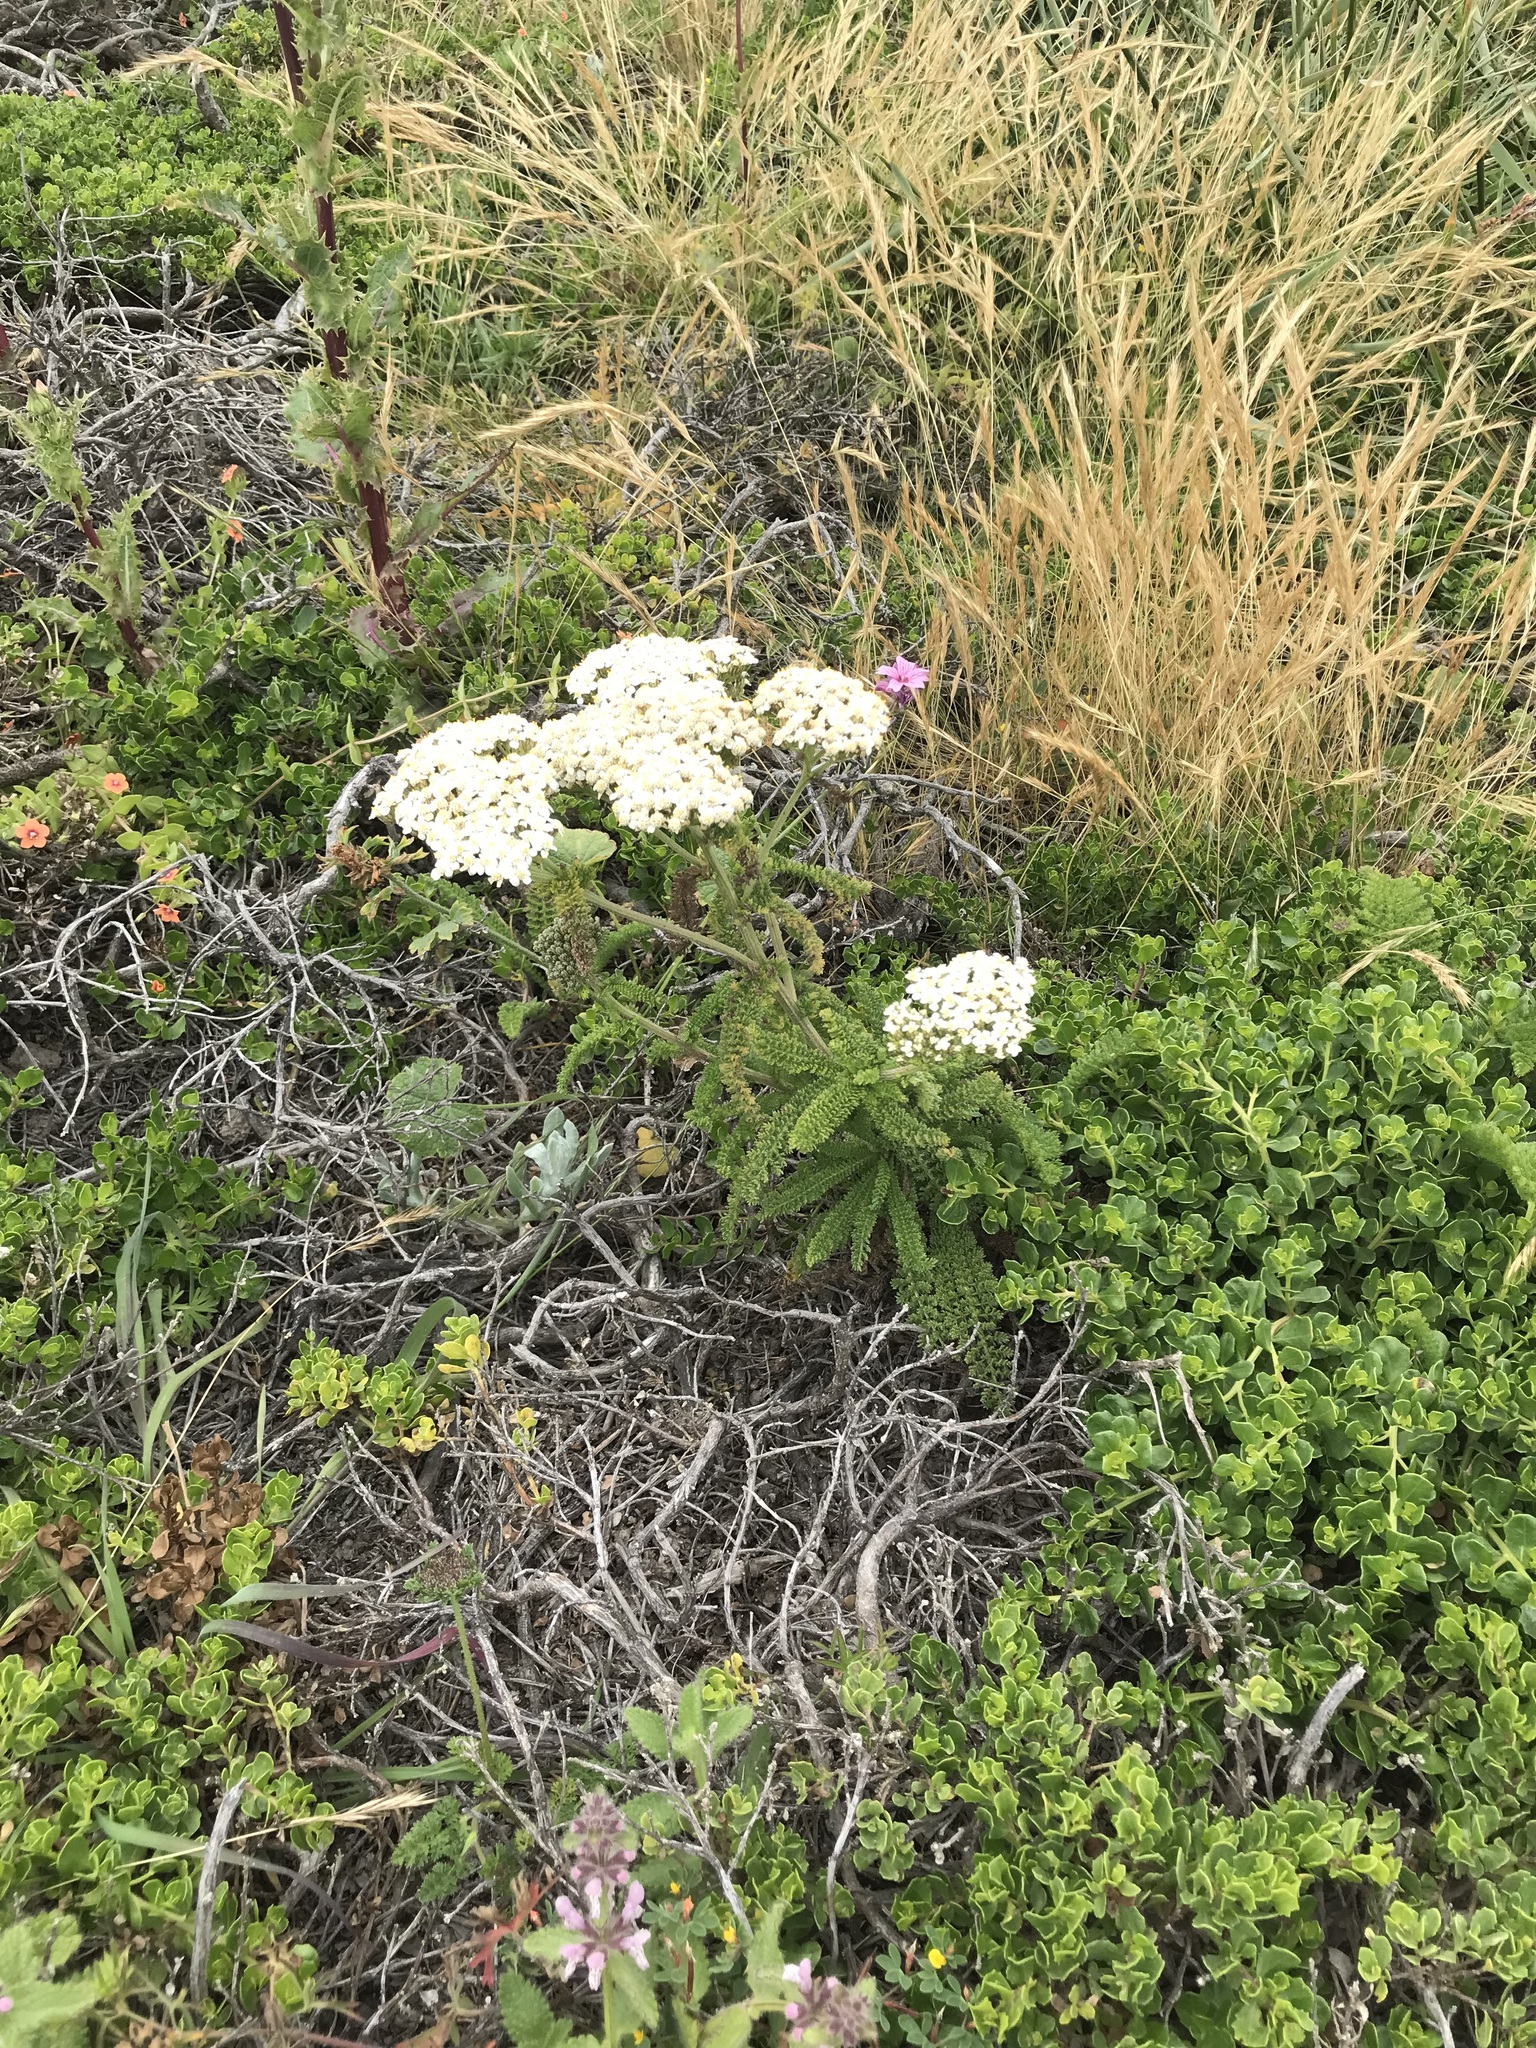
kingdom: Plantae
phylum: Tracheophyta
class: Magnoliopsida
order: Asterales
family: Asteraceae
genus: Achillea
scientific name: Achillea millefolium
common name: Yarrow
